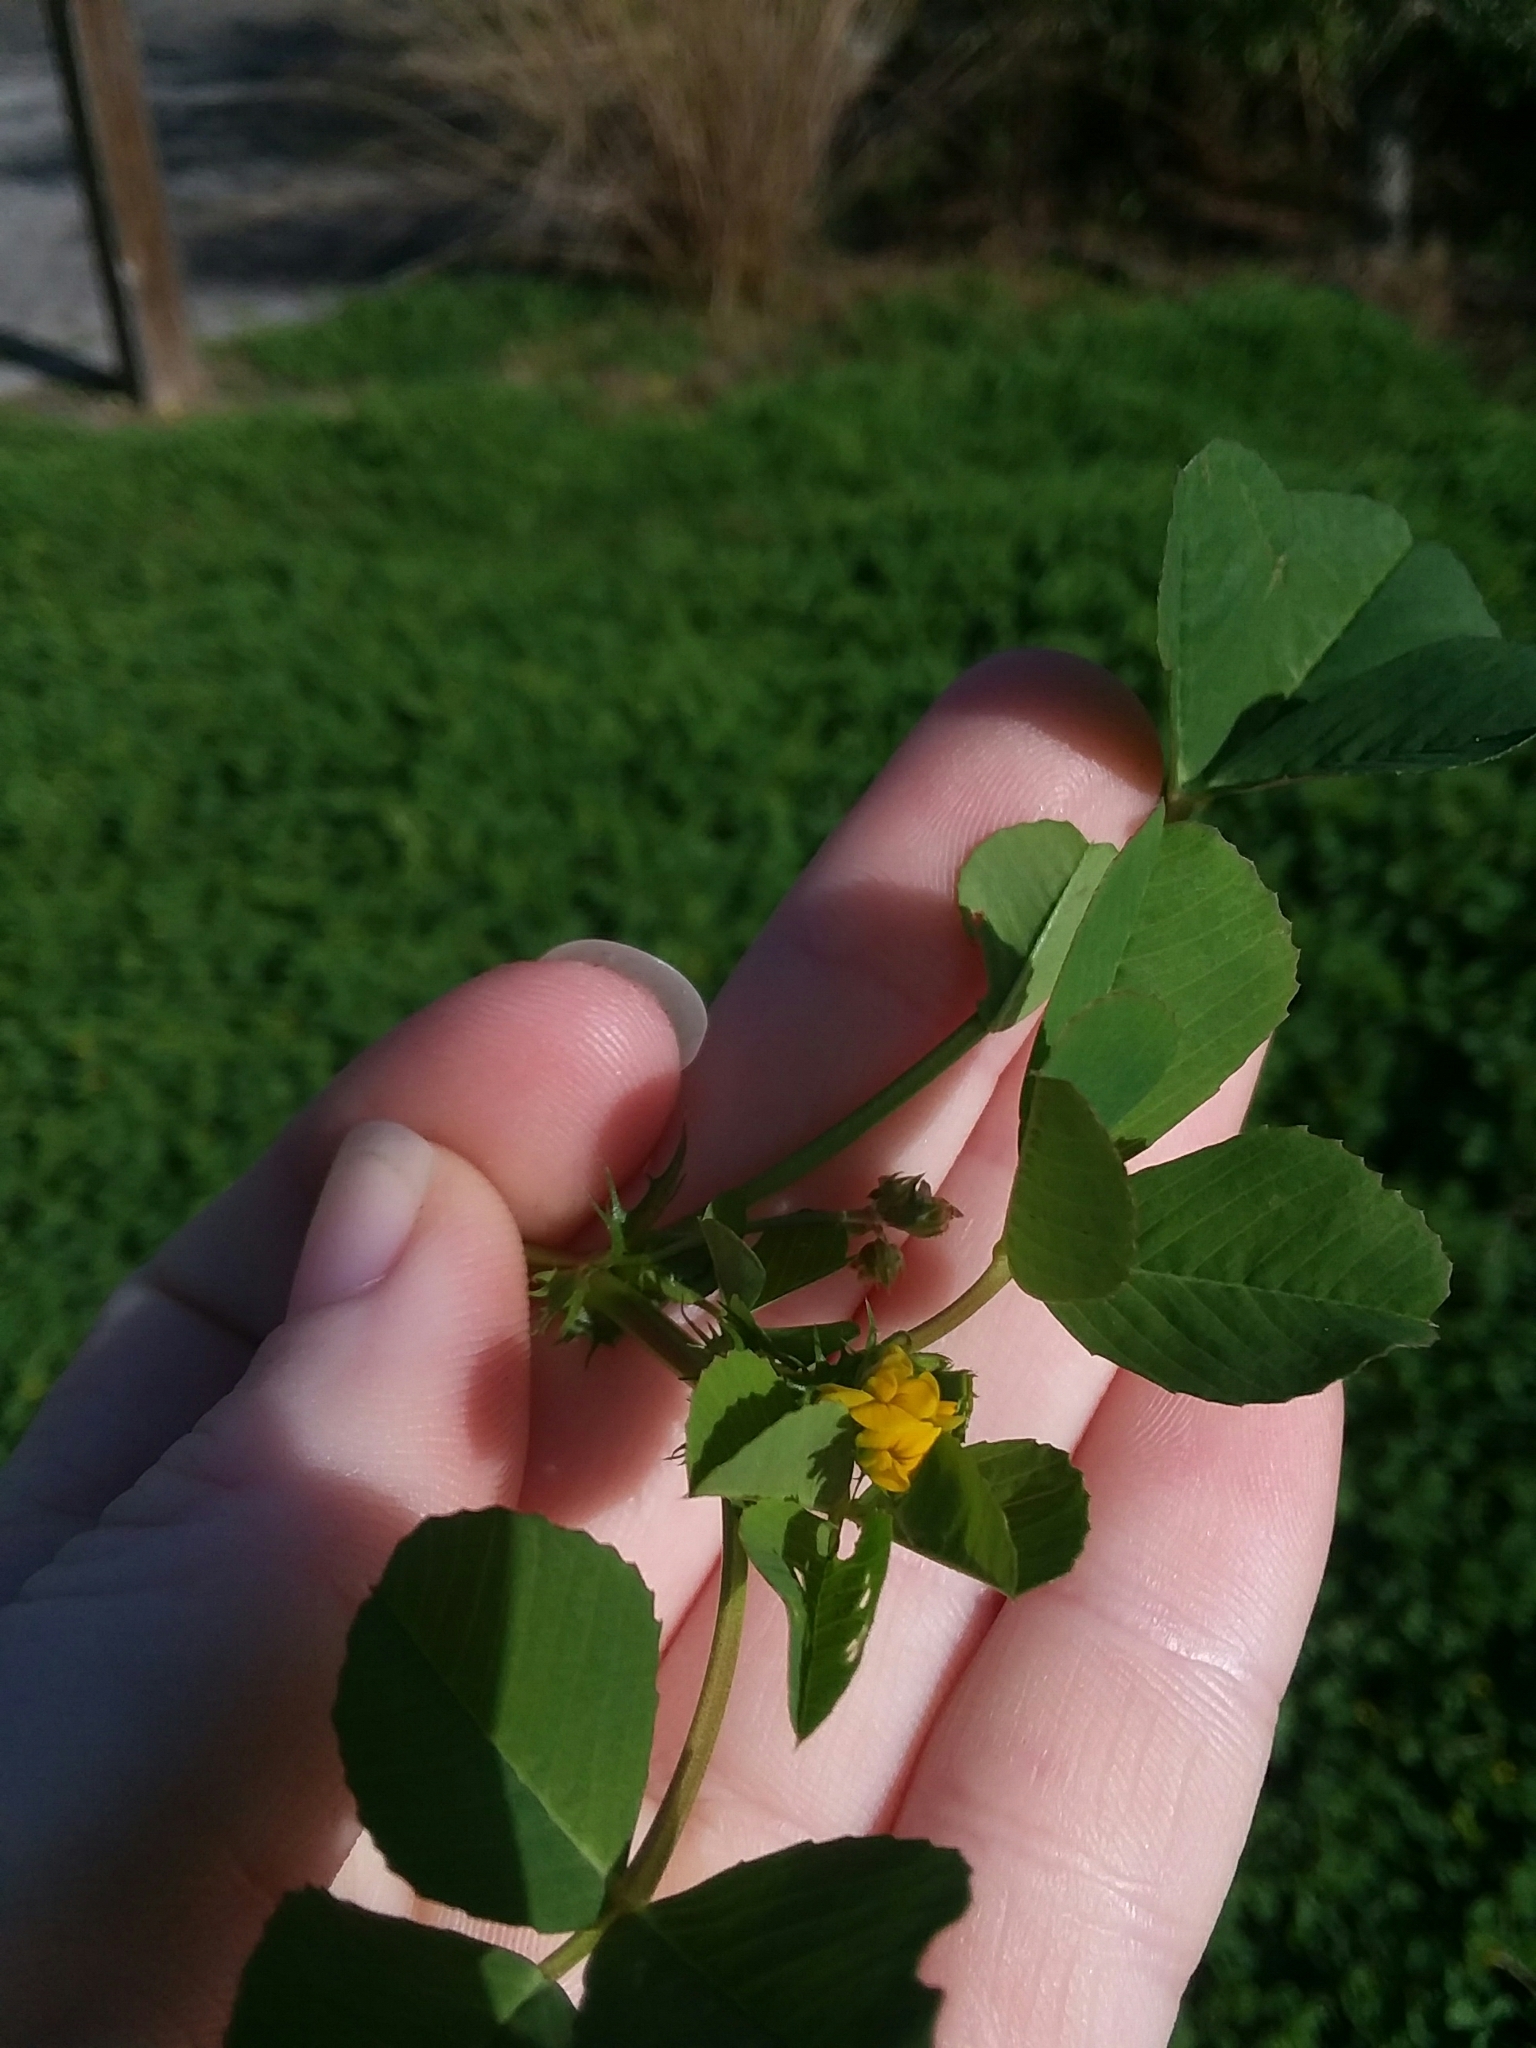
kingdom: Plantae
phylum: Tracheophyta
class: Magnoliopsida
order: Fabales
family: Fabaceae
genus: Medicago
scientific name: Medicago polymorpha
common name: Burclover
